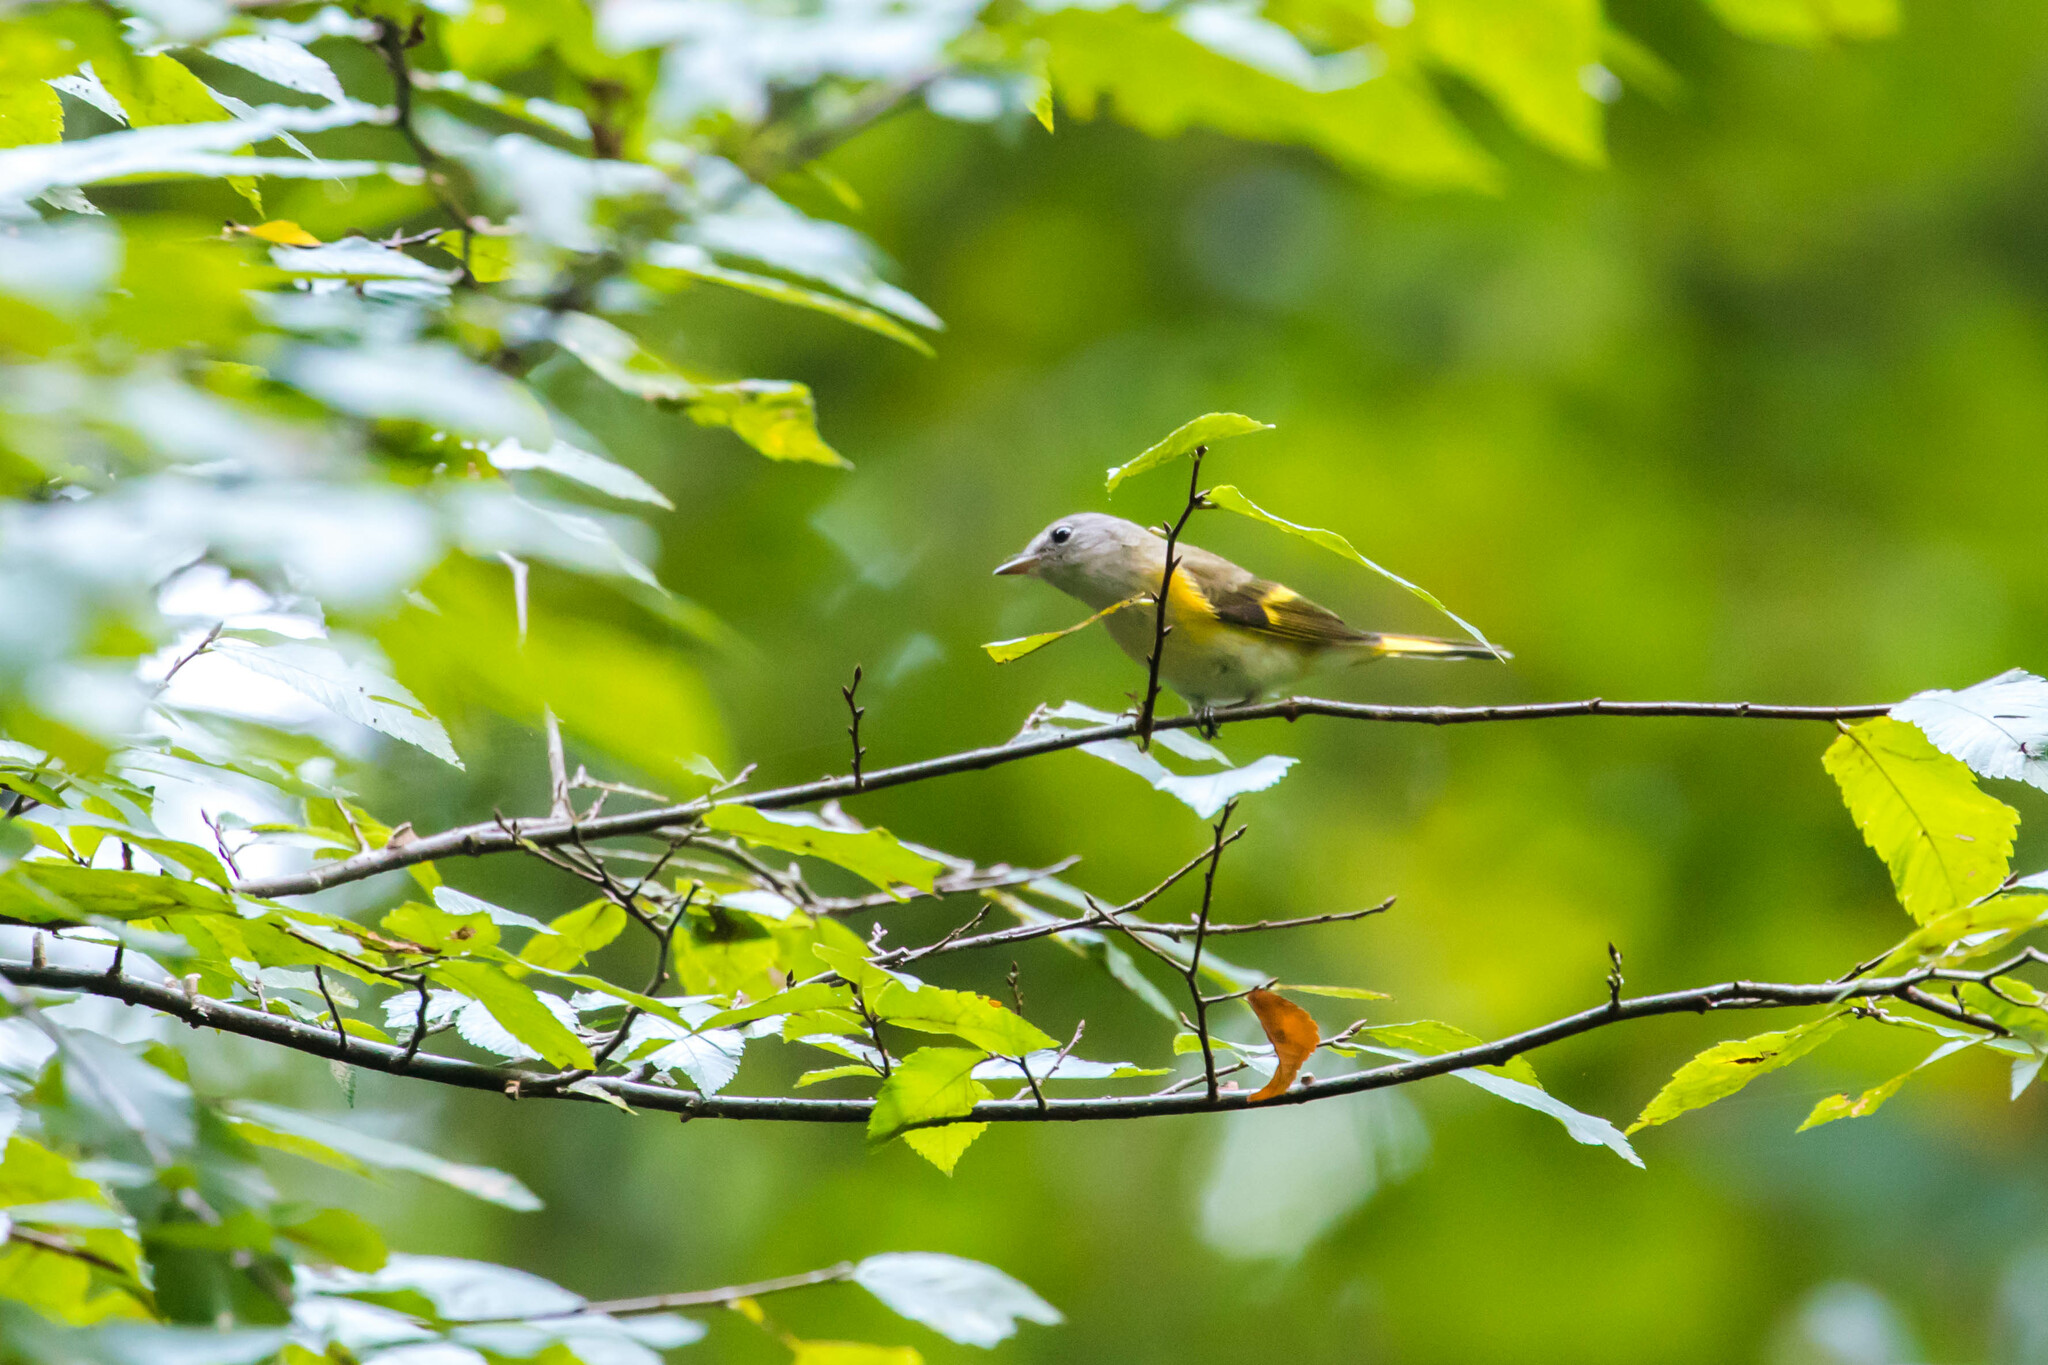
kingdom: Animalia
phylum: Chordata
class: Aves
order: Passeriformes
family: Parulidae
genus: Setophaga
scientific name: Setophaga ruticilla
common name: American redstart
